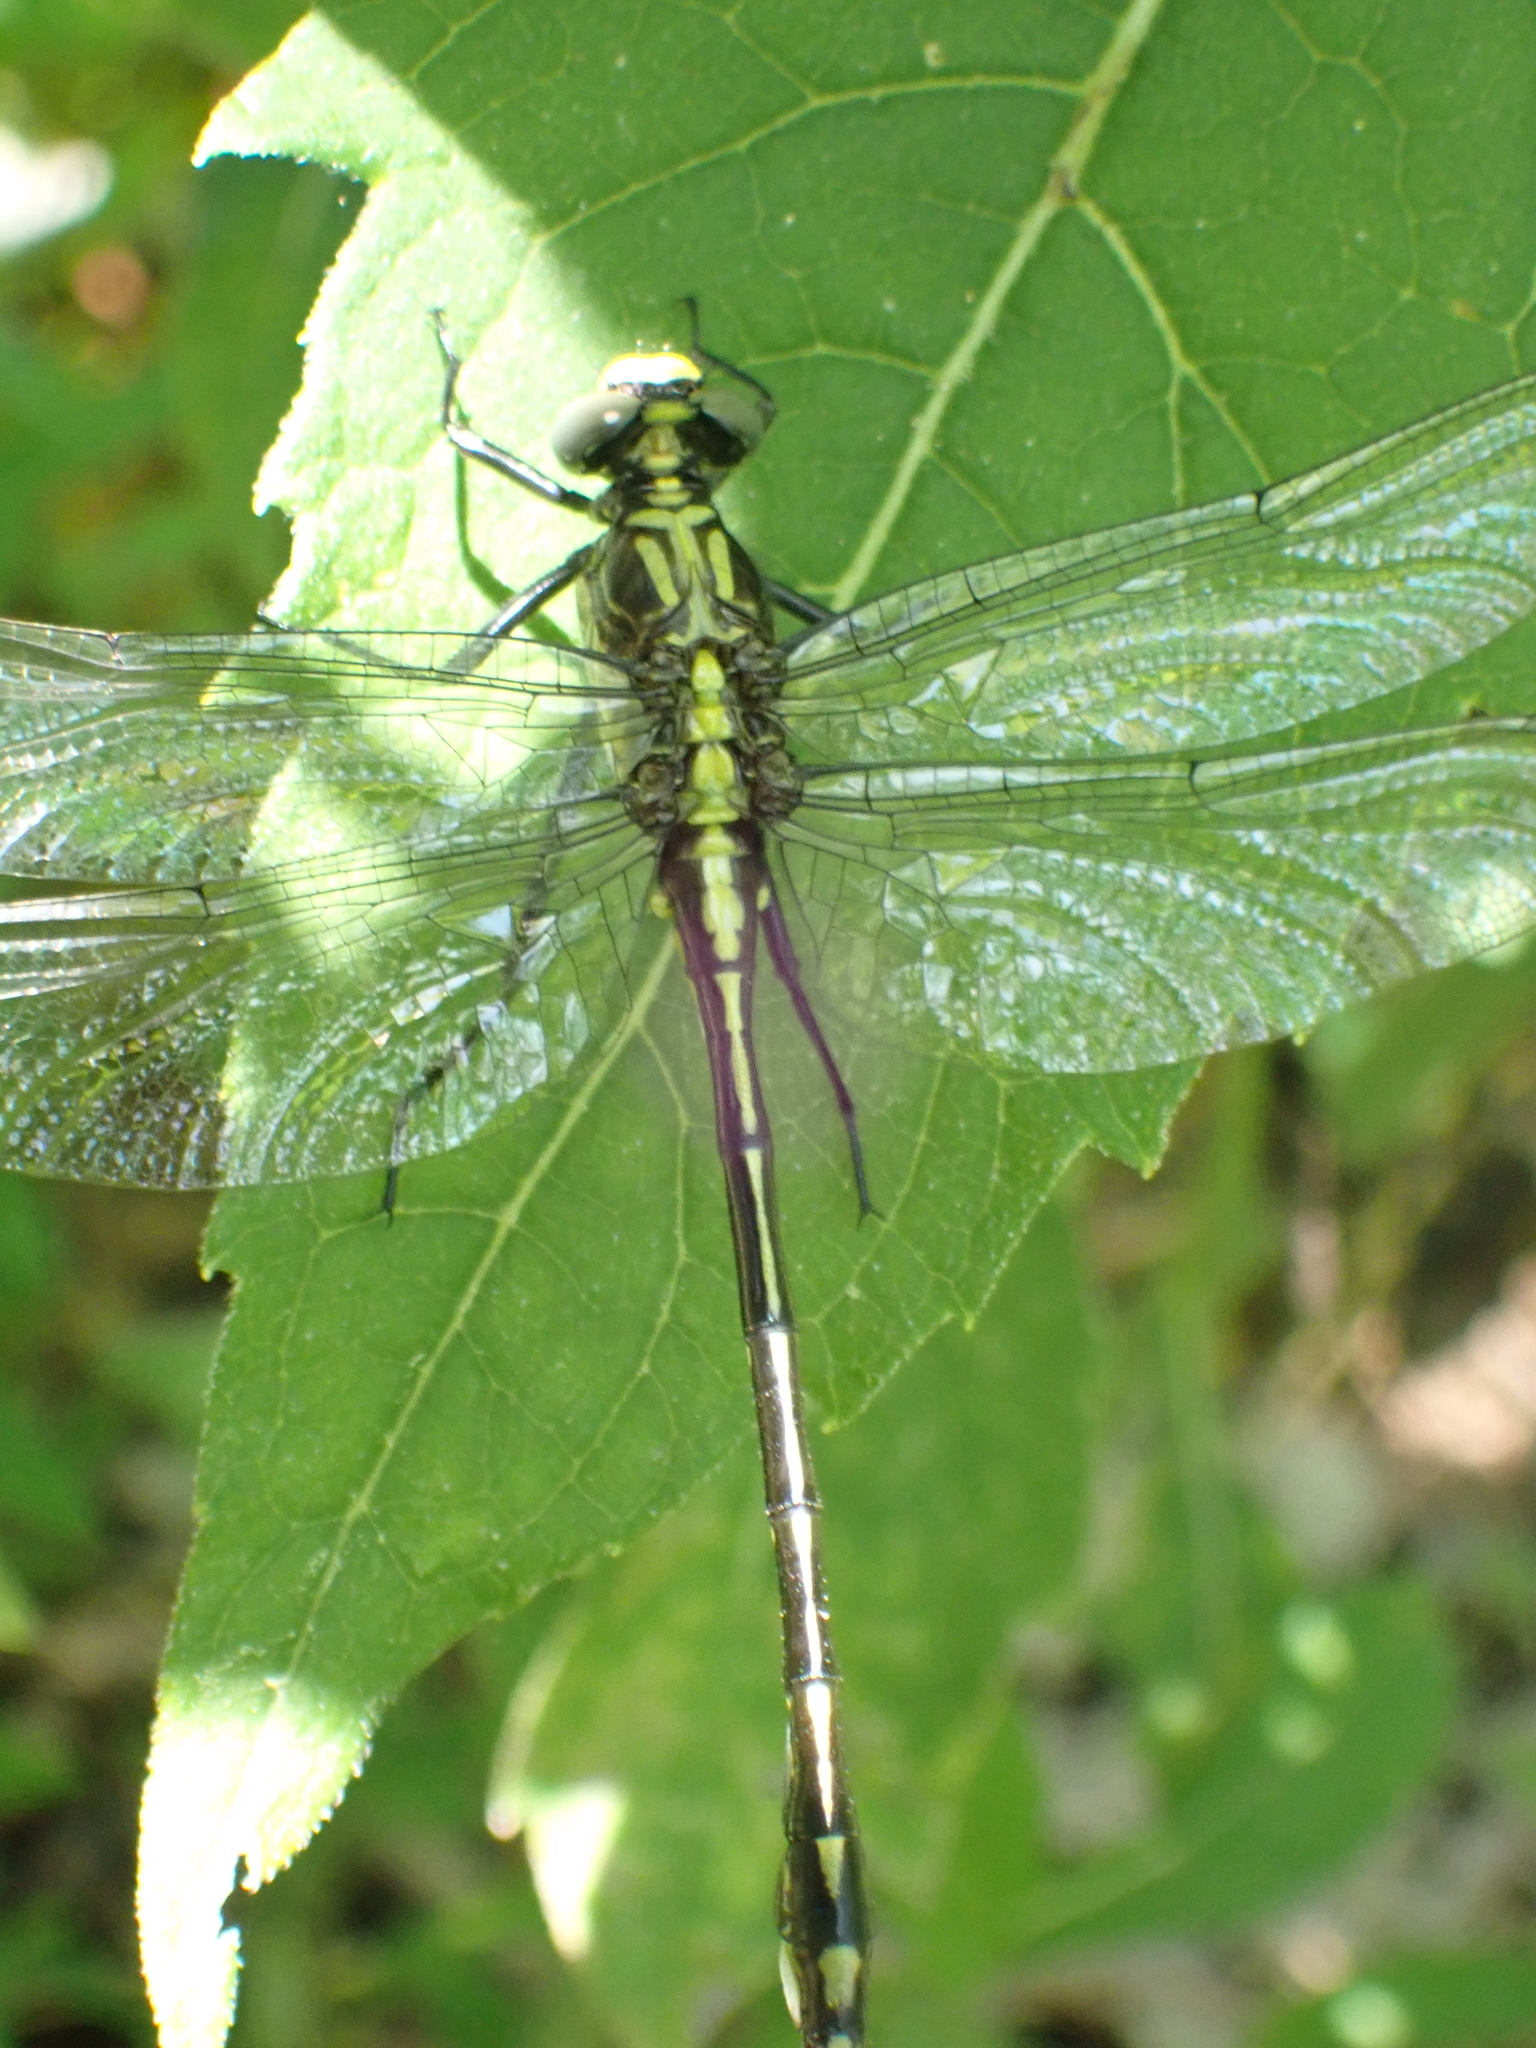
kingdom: Animalia
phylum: Arthropoda
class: Insecta
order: Odonata
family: Gomphidae
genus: Dromogomphus
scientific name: Dromogomphus spinosus
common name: Black-shouldered spinyleg
